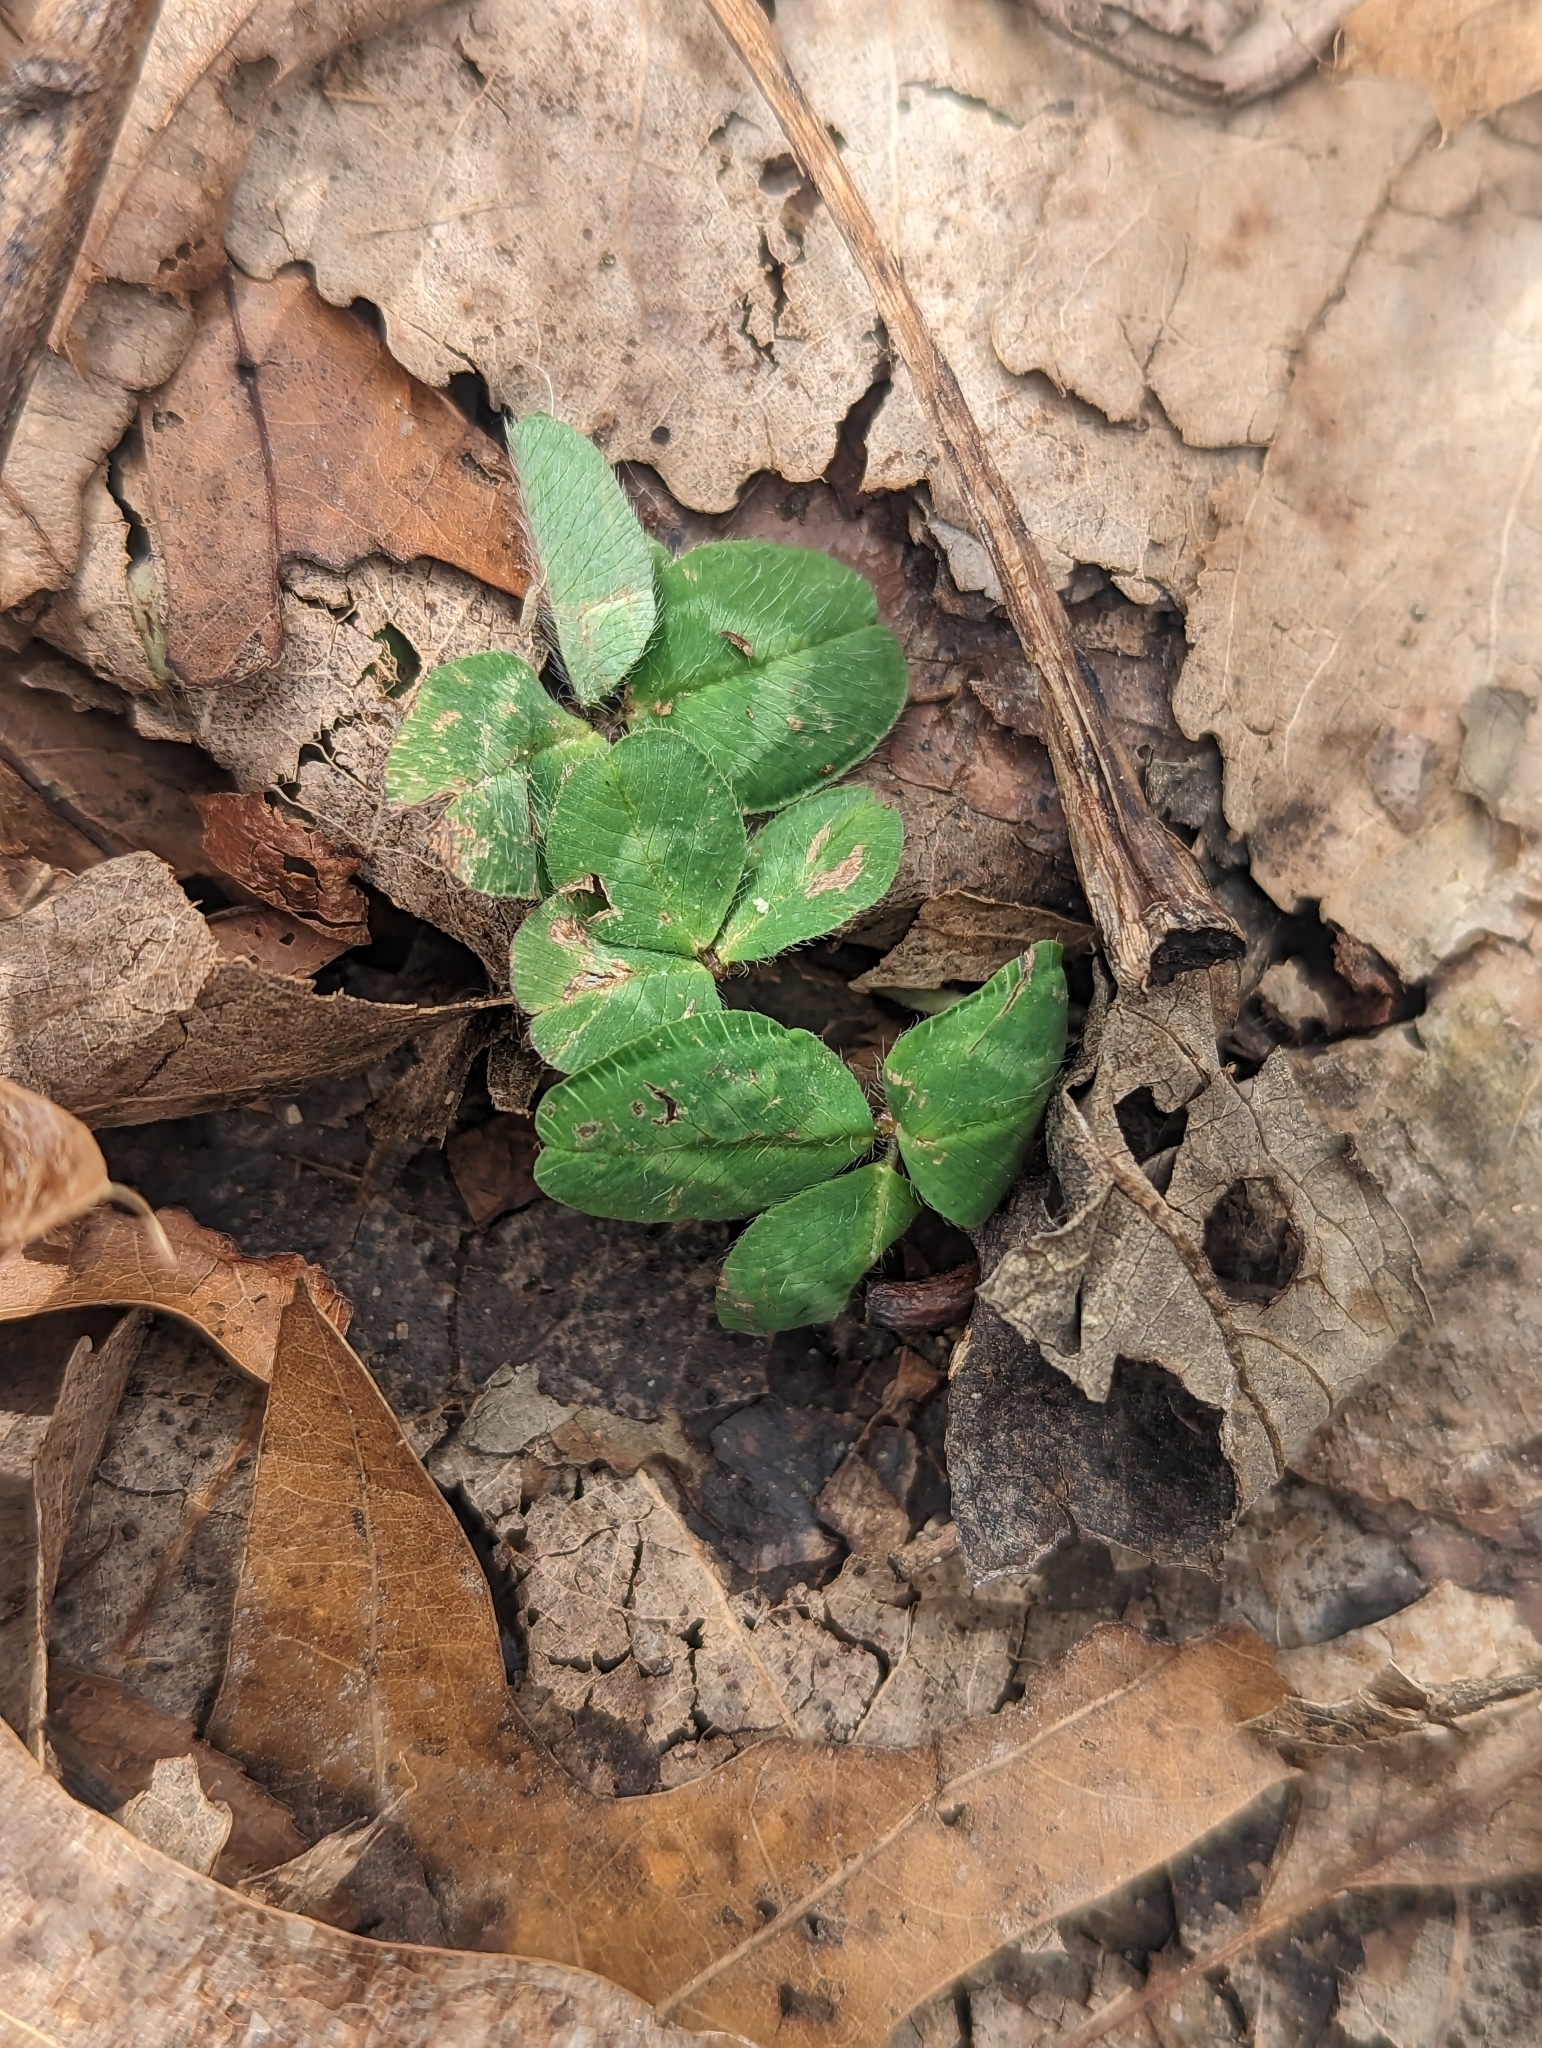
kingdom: Plantae
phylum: Tracheophyta
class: Magnoliopsida
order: Fabales
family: Fabaceae
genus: Trifolium
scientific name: Trifolium pratense
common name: Red clover
